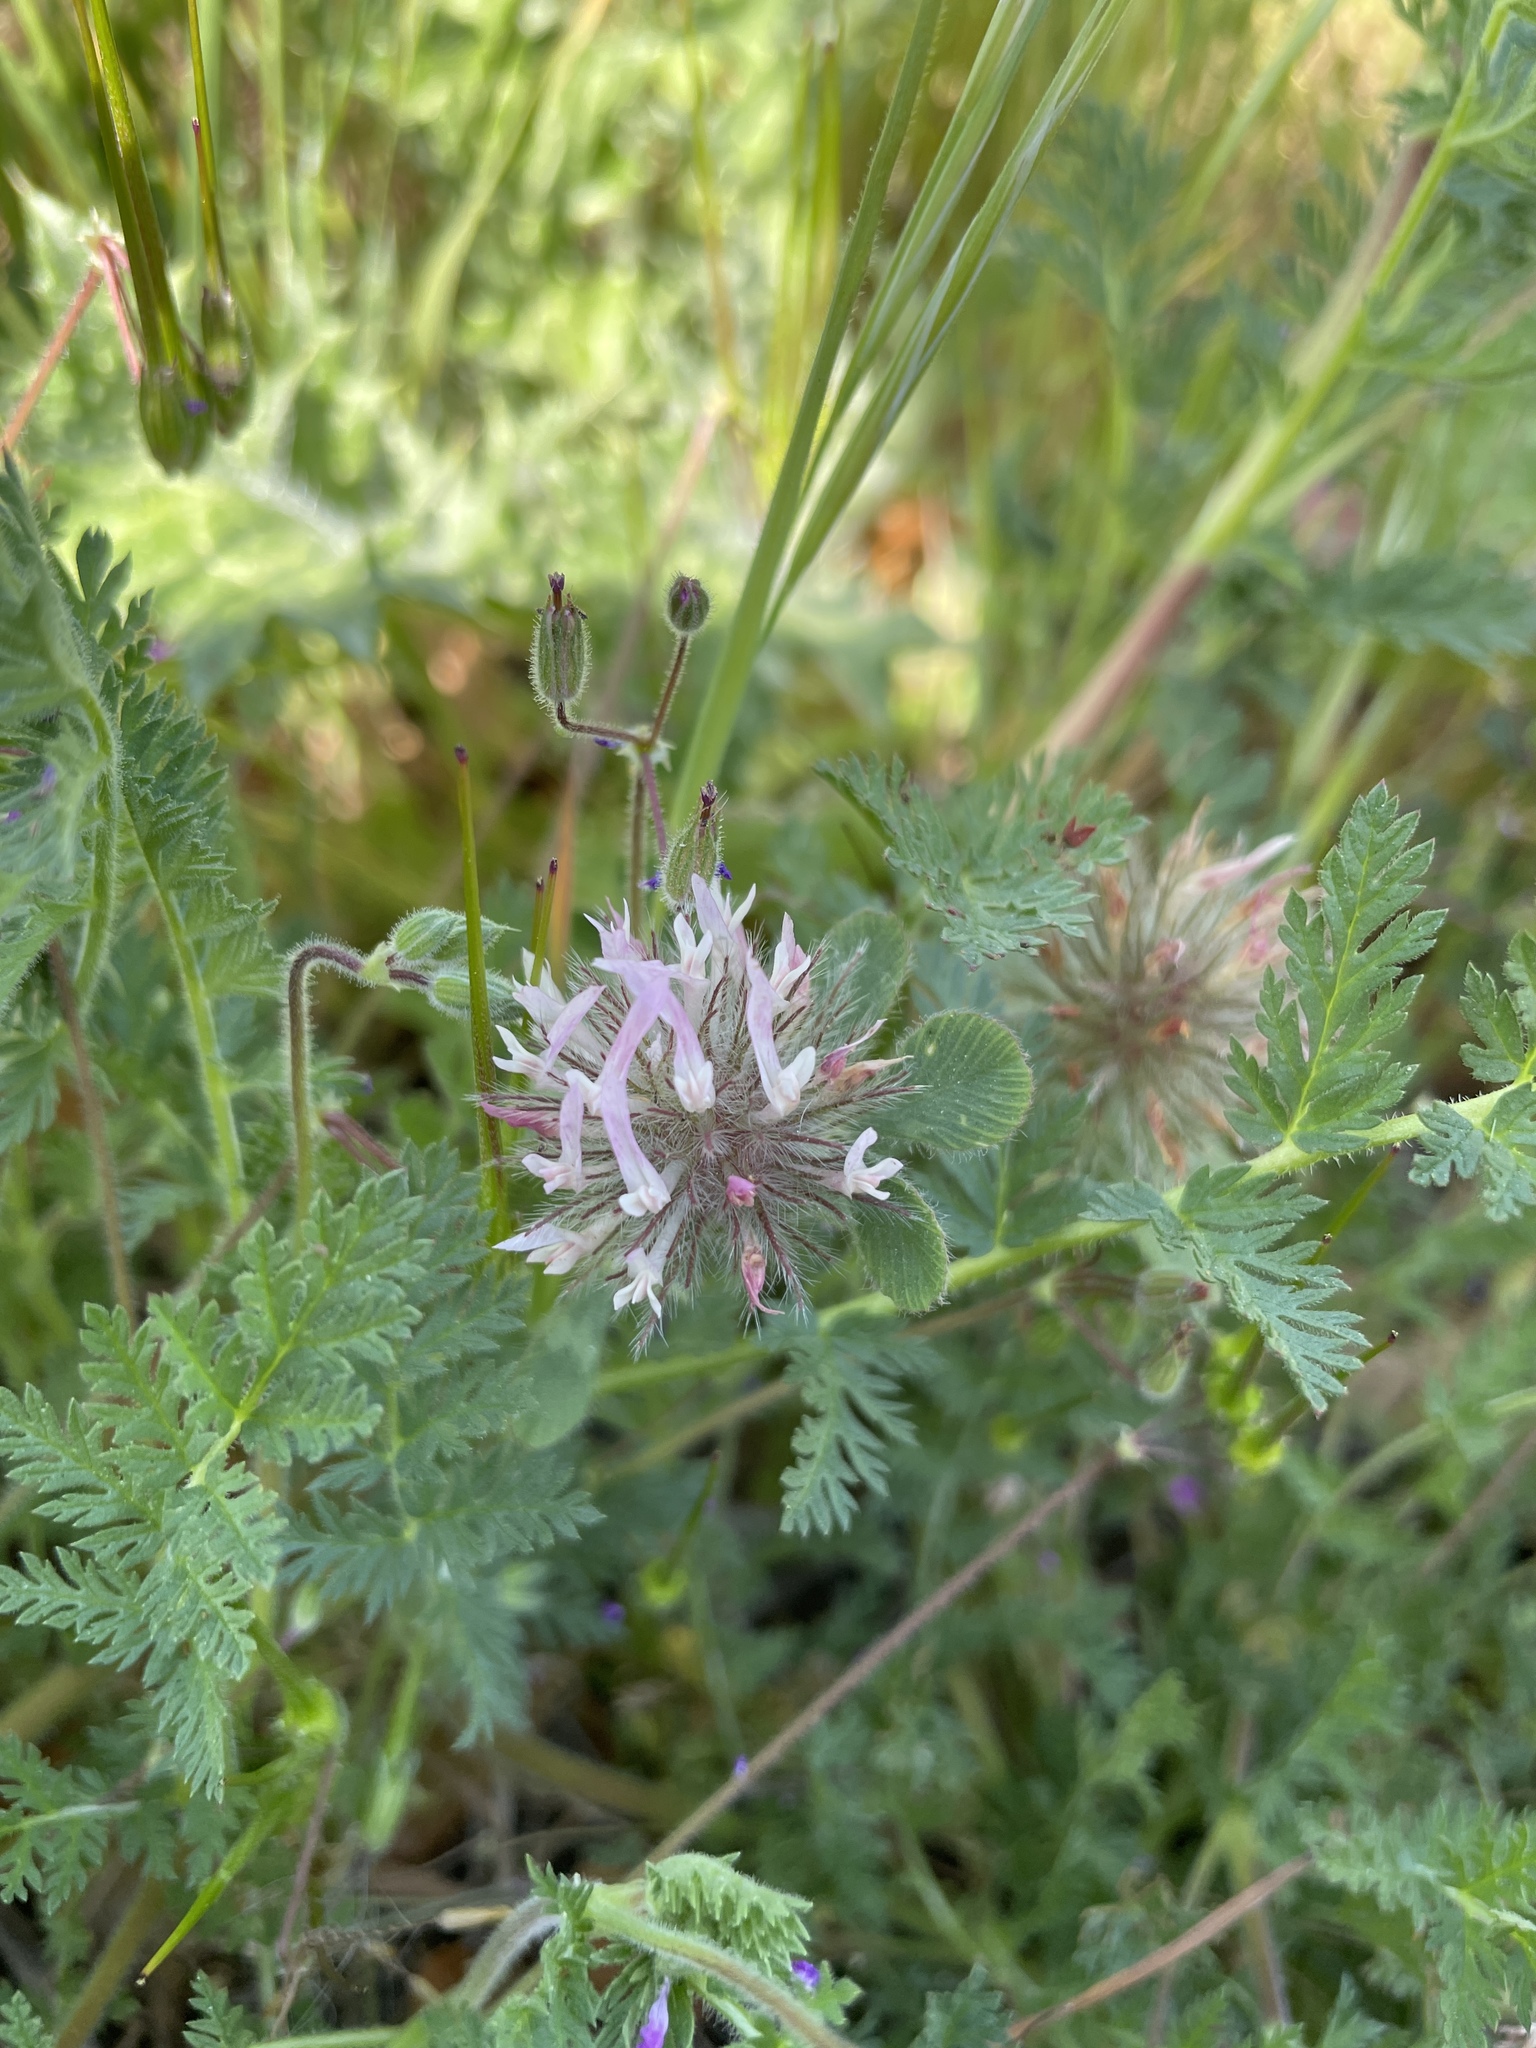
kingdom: Plantae
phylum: Tracheophyta
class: Magnoliopsida
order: Fabales
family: Fabaceae
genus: Trifolium
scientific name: Trifolium hirtum
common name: Rose clover
